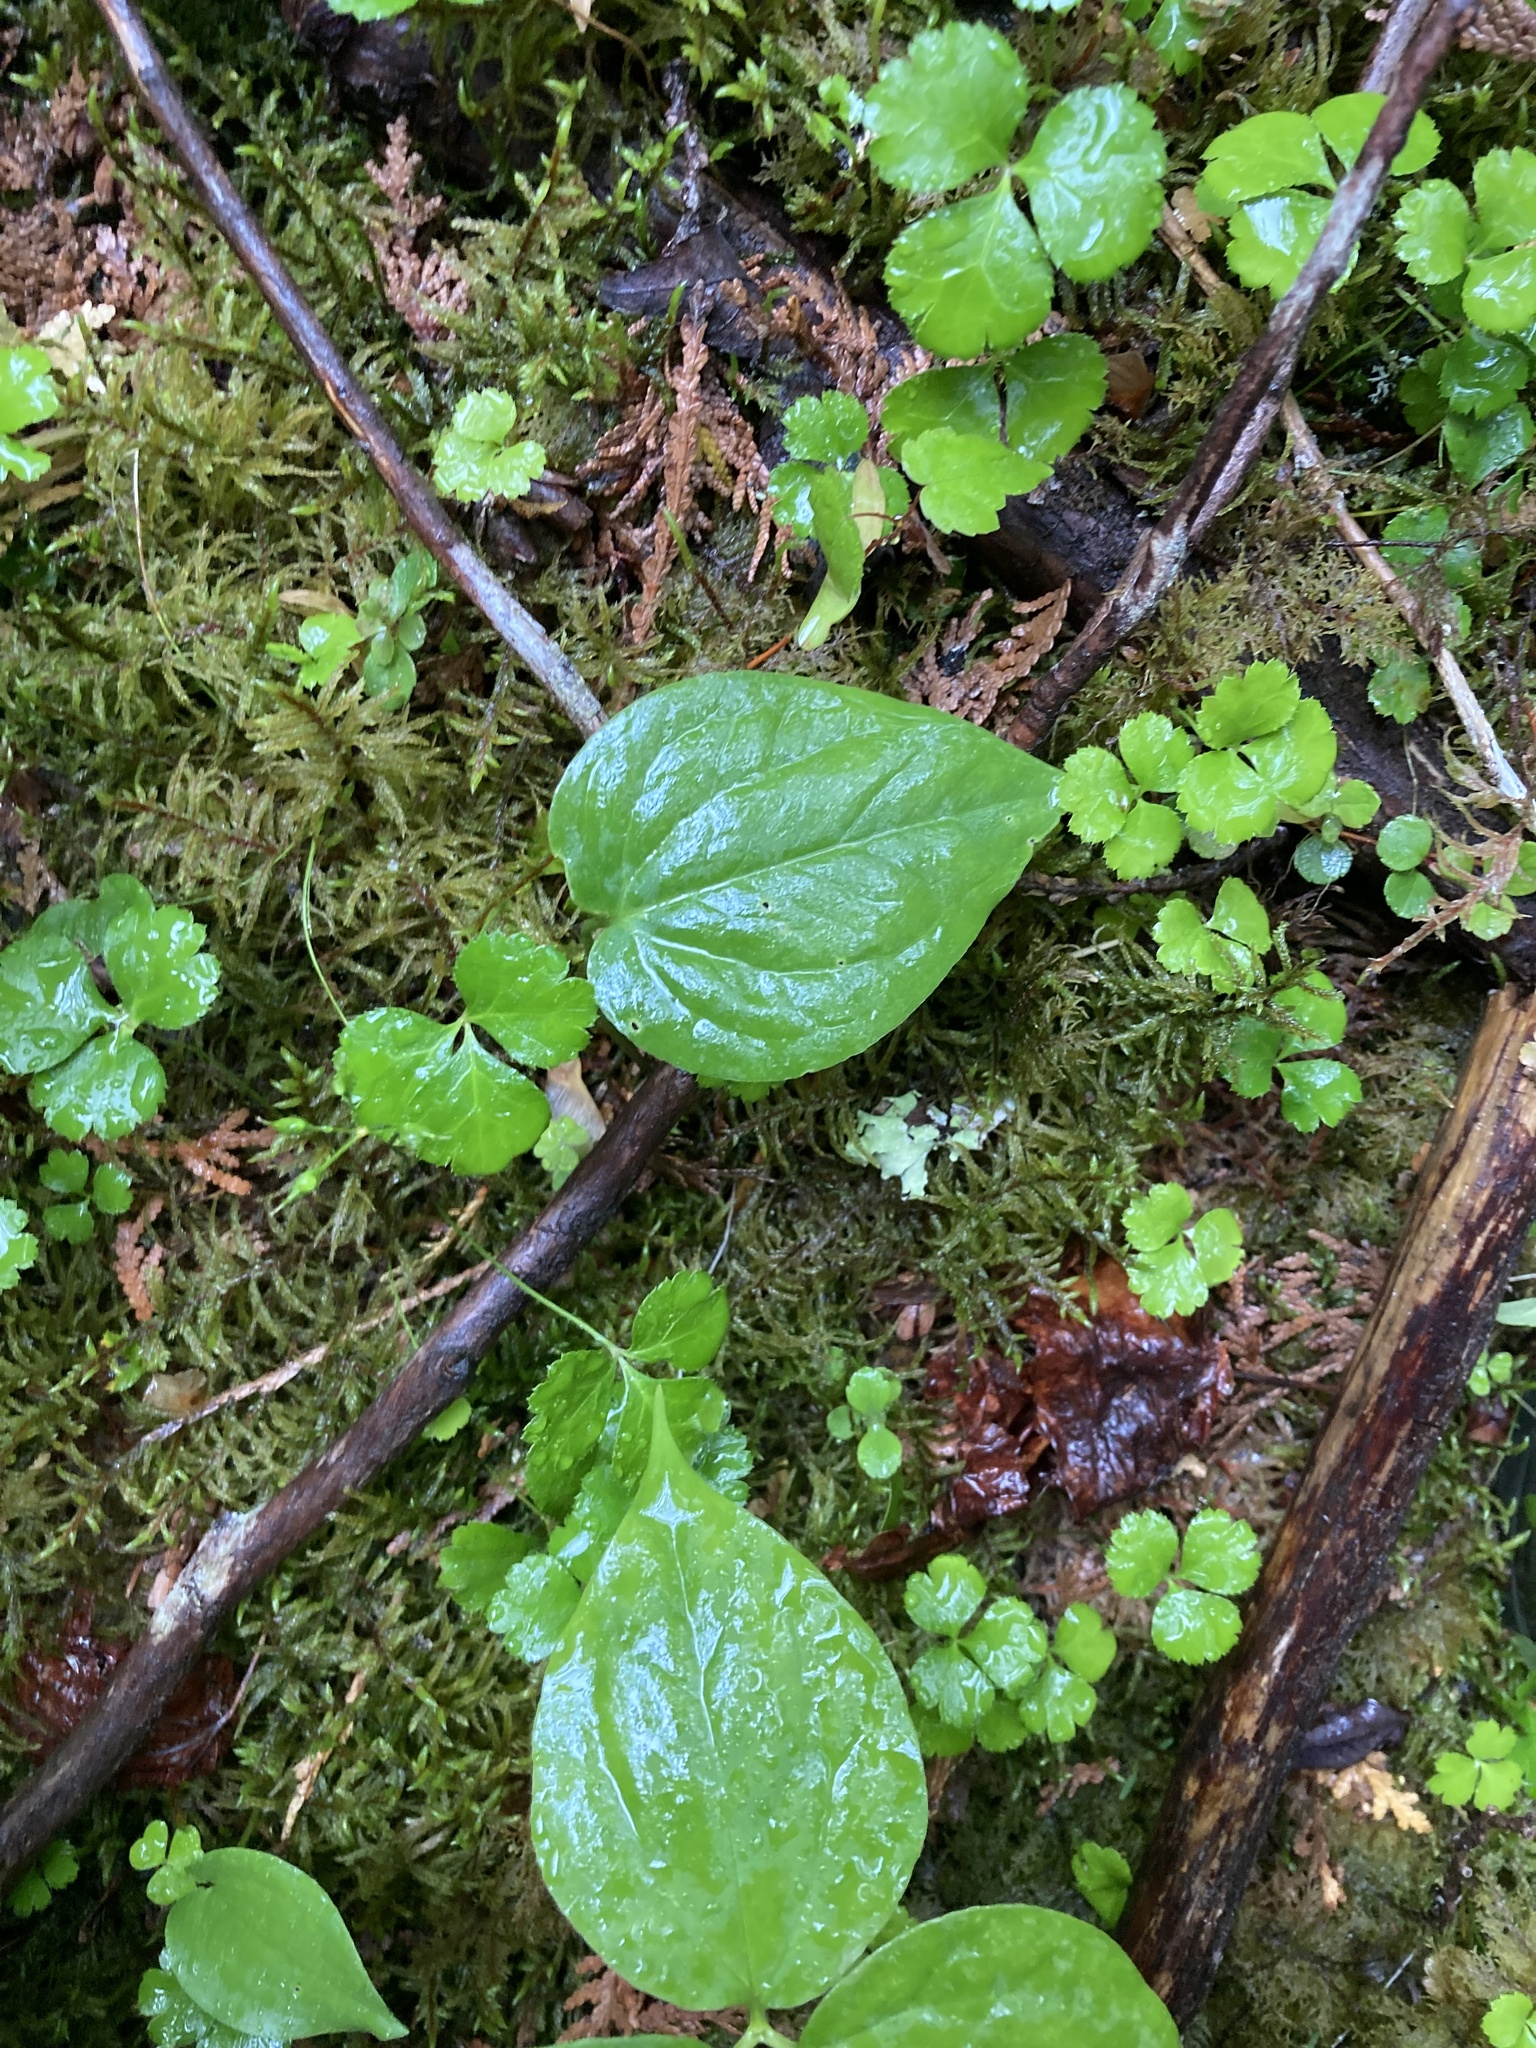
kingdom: Plantae
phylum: Tracheophyta
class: Liliopsida
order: Liliales
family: Melanthiaceae
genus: Trillium
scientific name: Trillium undulatum
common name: Paint trillium
